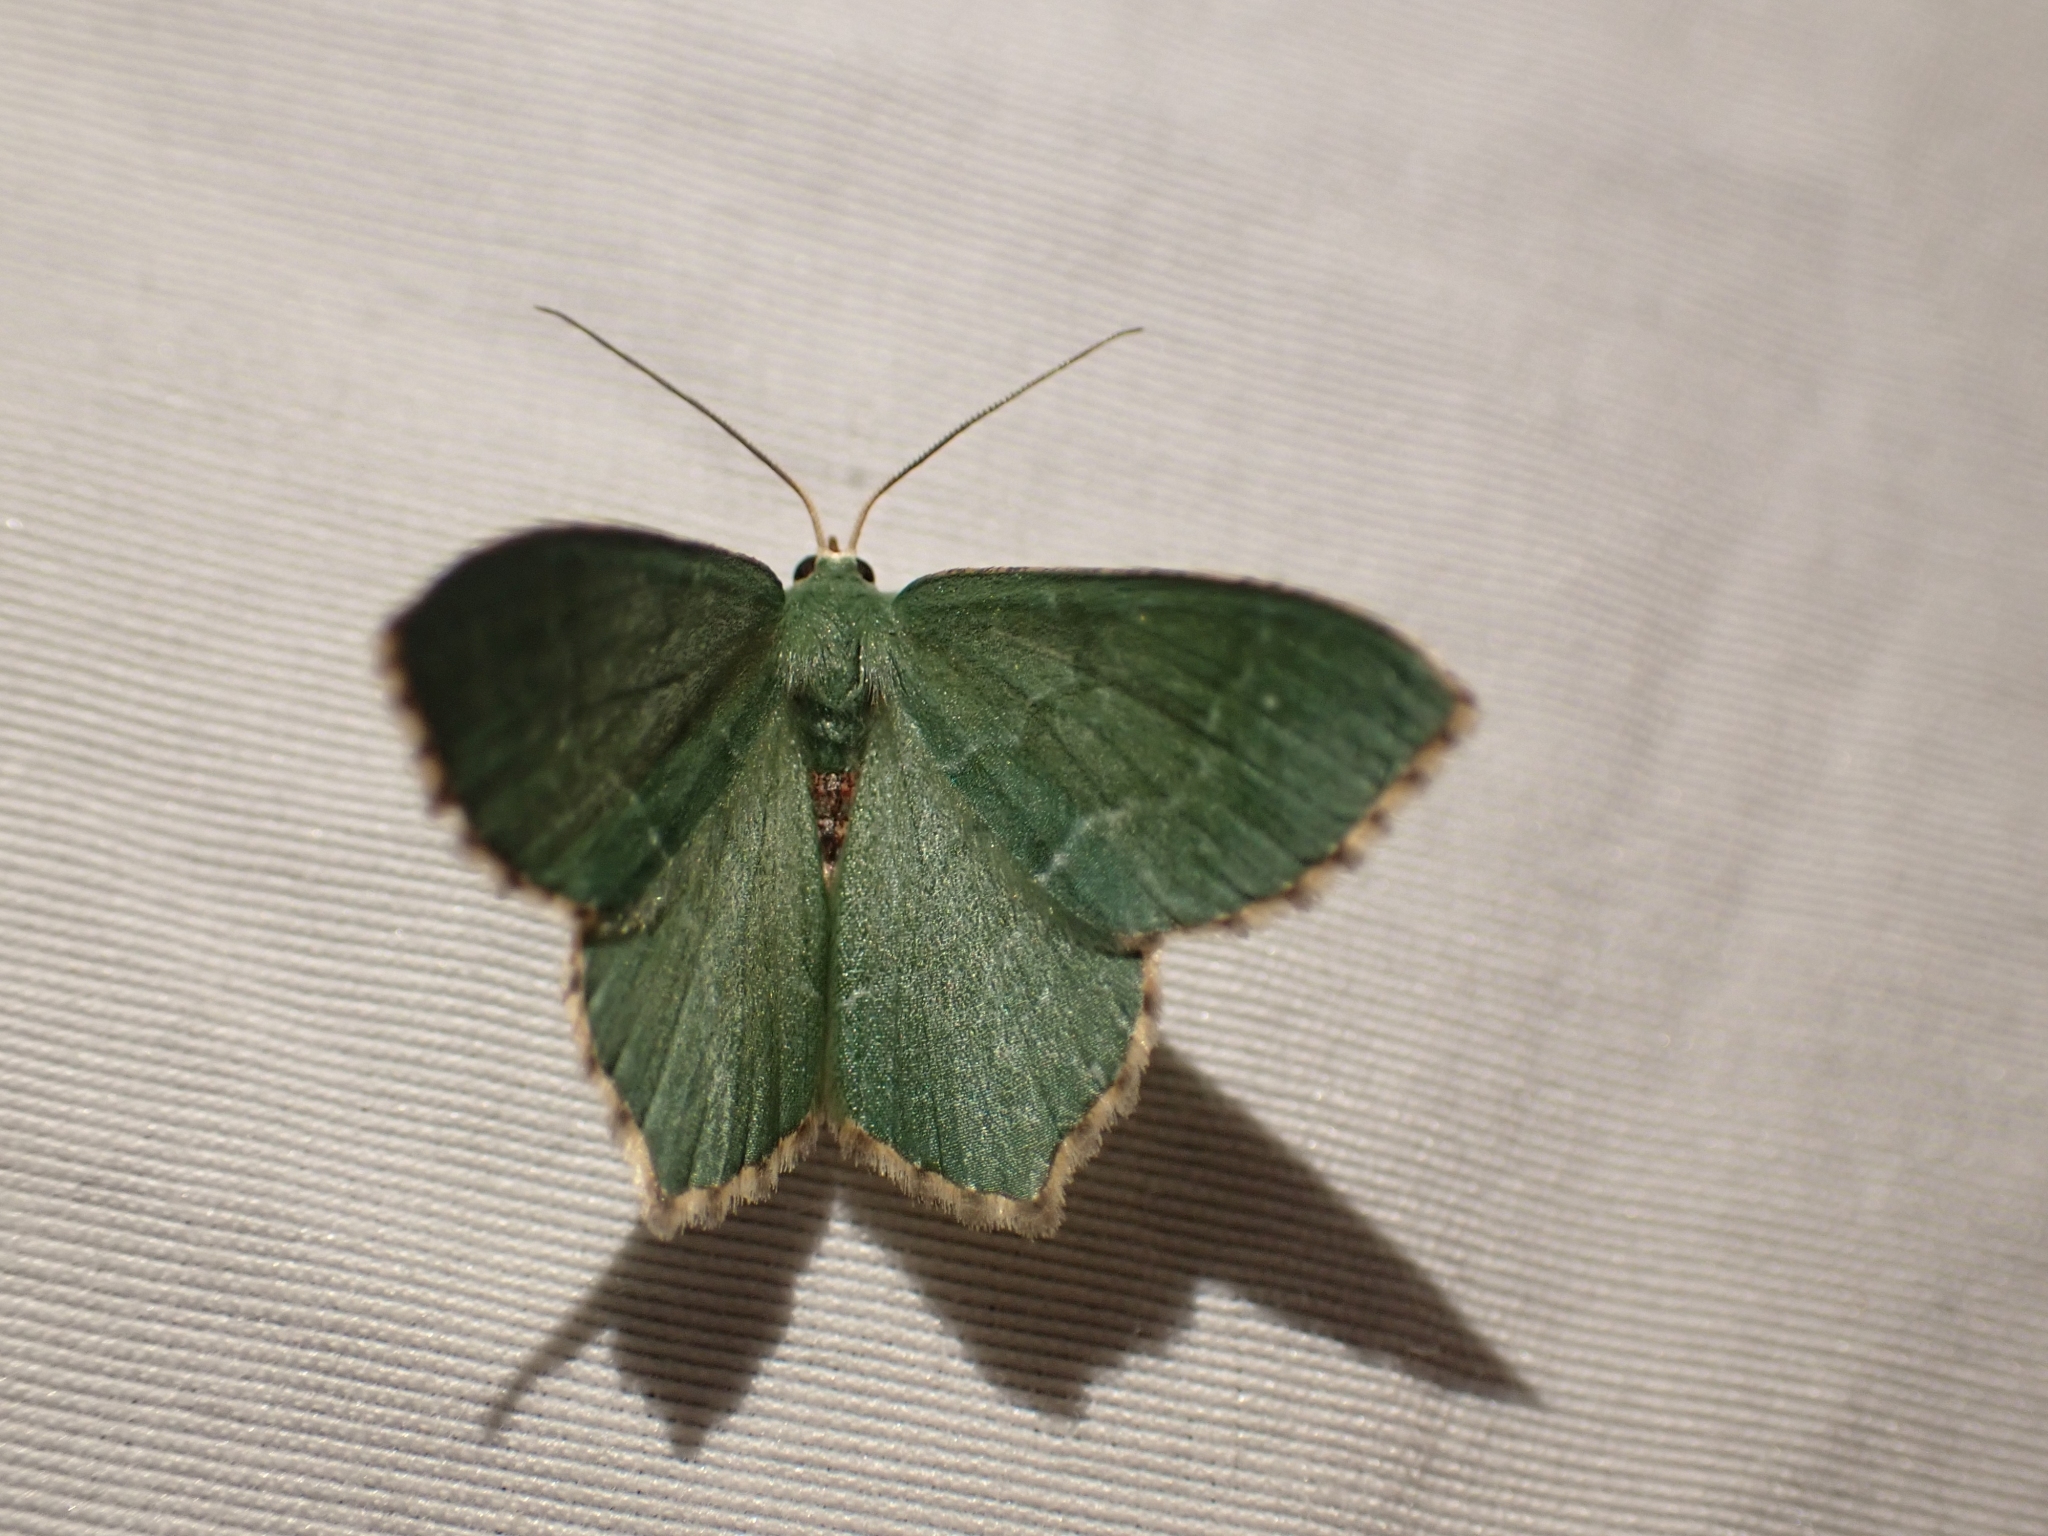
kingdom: Animalia
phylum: Arthropoda
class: Insecta
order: Lepidoptera
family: Geometridae
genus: Hemithea
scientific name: Hemithea aestivaria
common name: Common emerald
